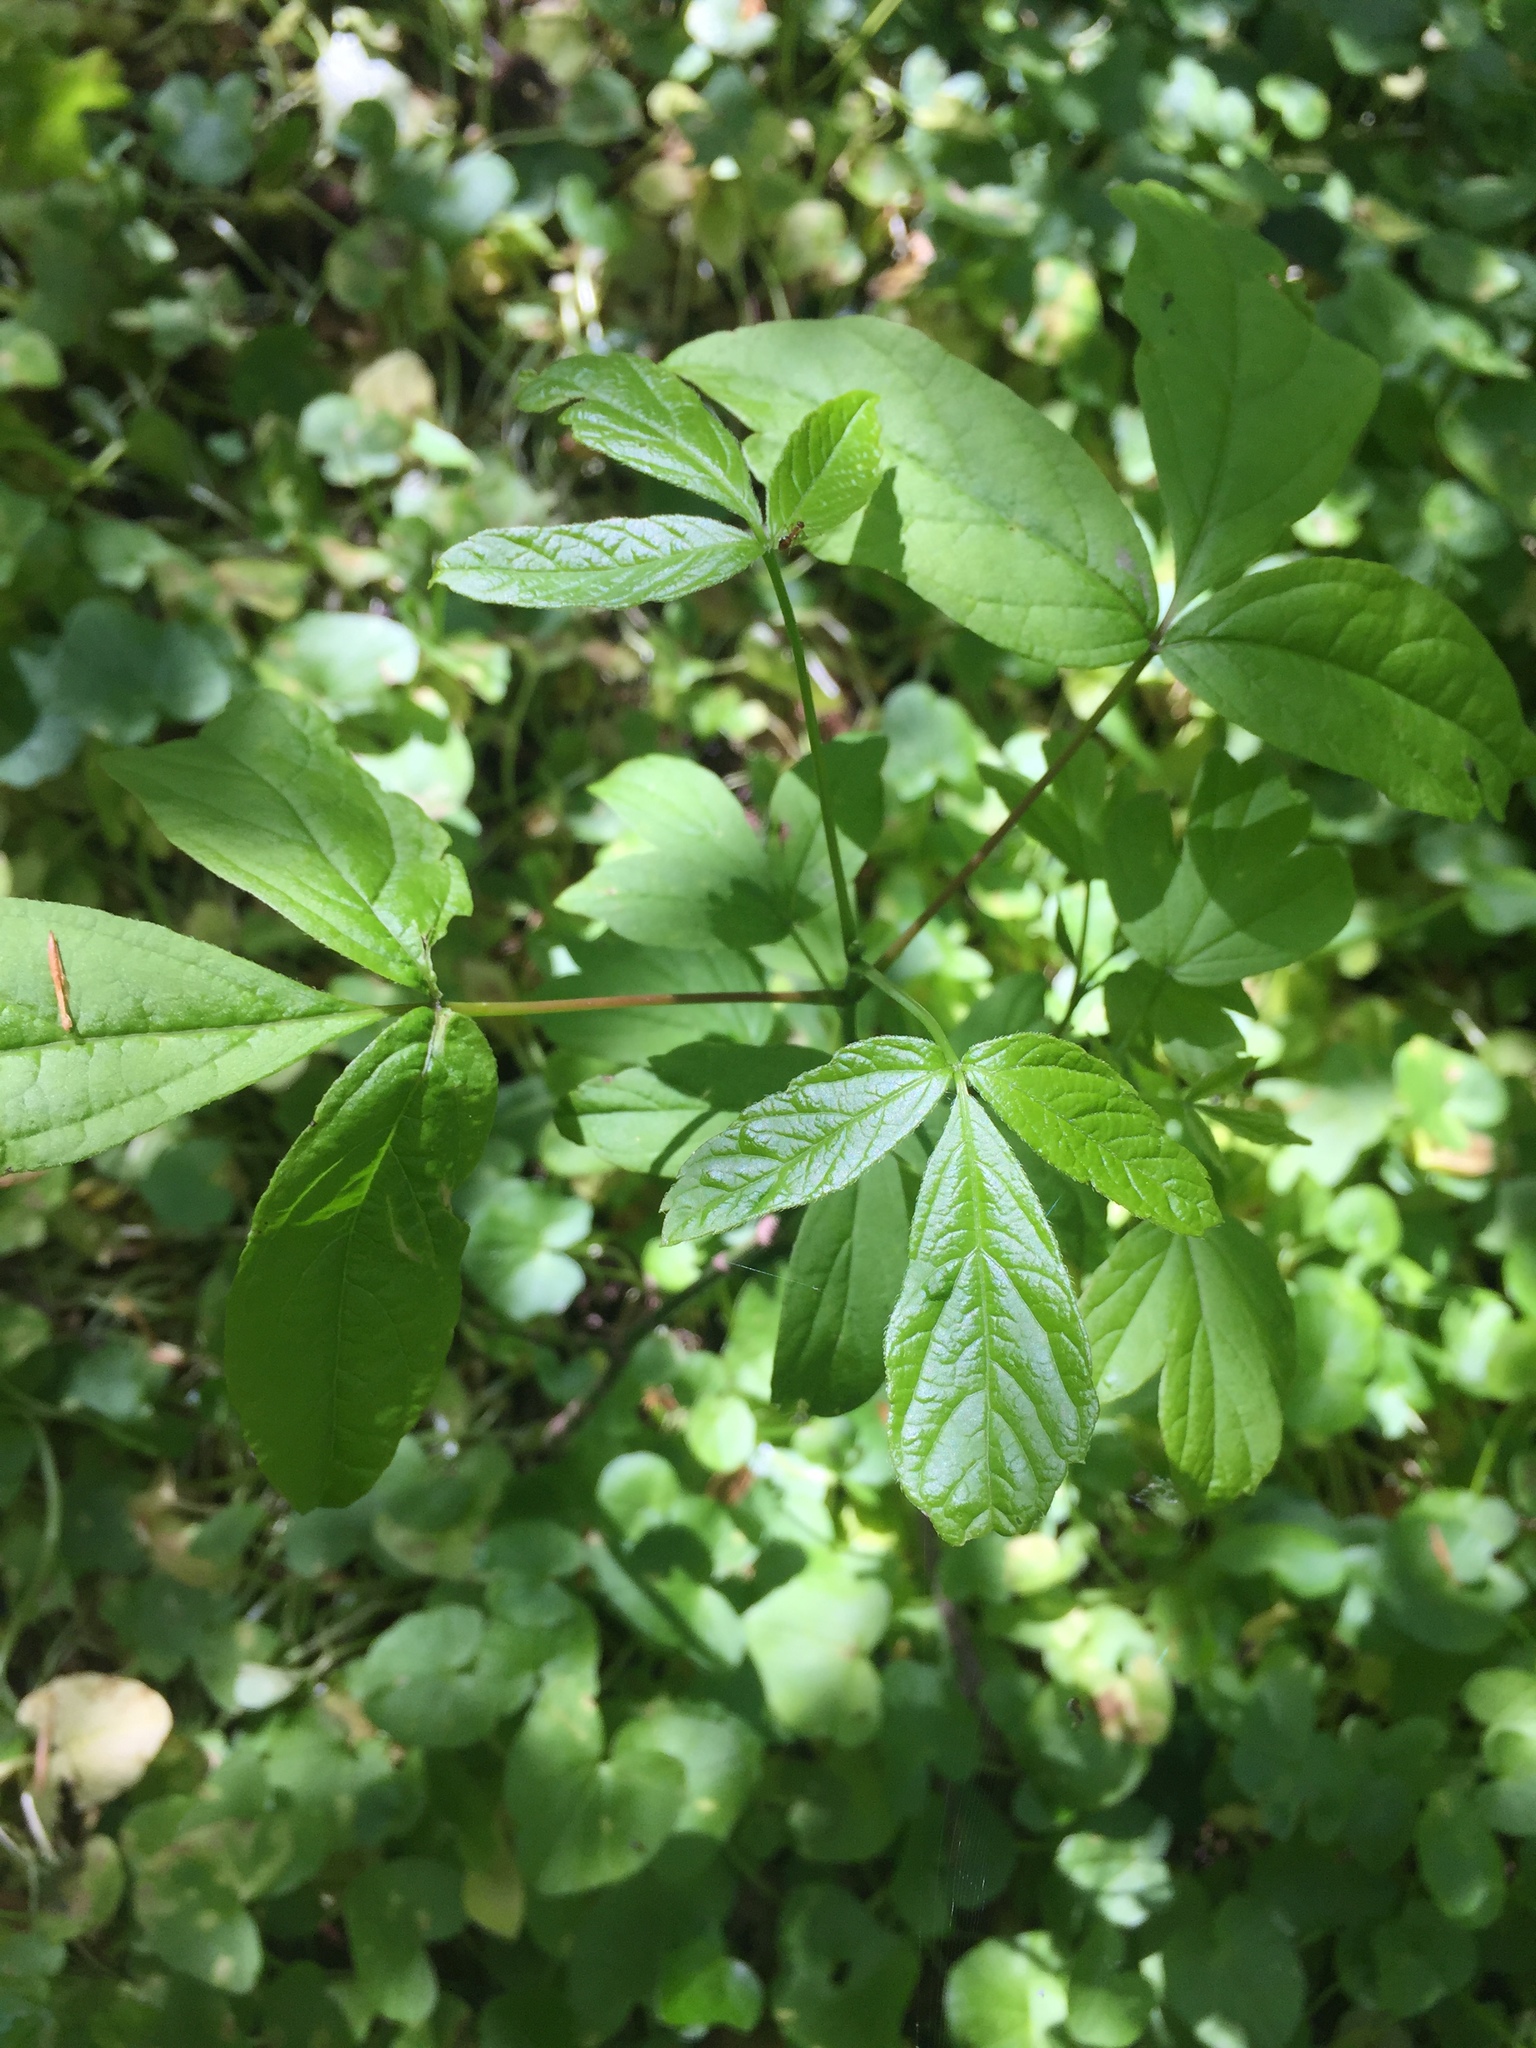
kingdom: Plantae
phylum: Tracheophyta
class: Magnoliopsida
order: Sapindales
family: Sapindaceae
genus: Acer
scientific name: Acer negundo
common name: Ashleaf maple
